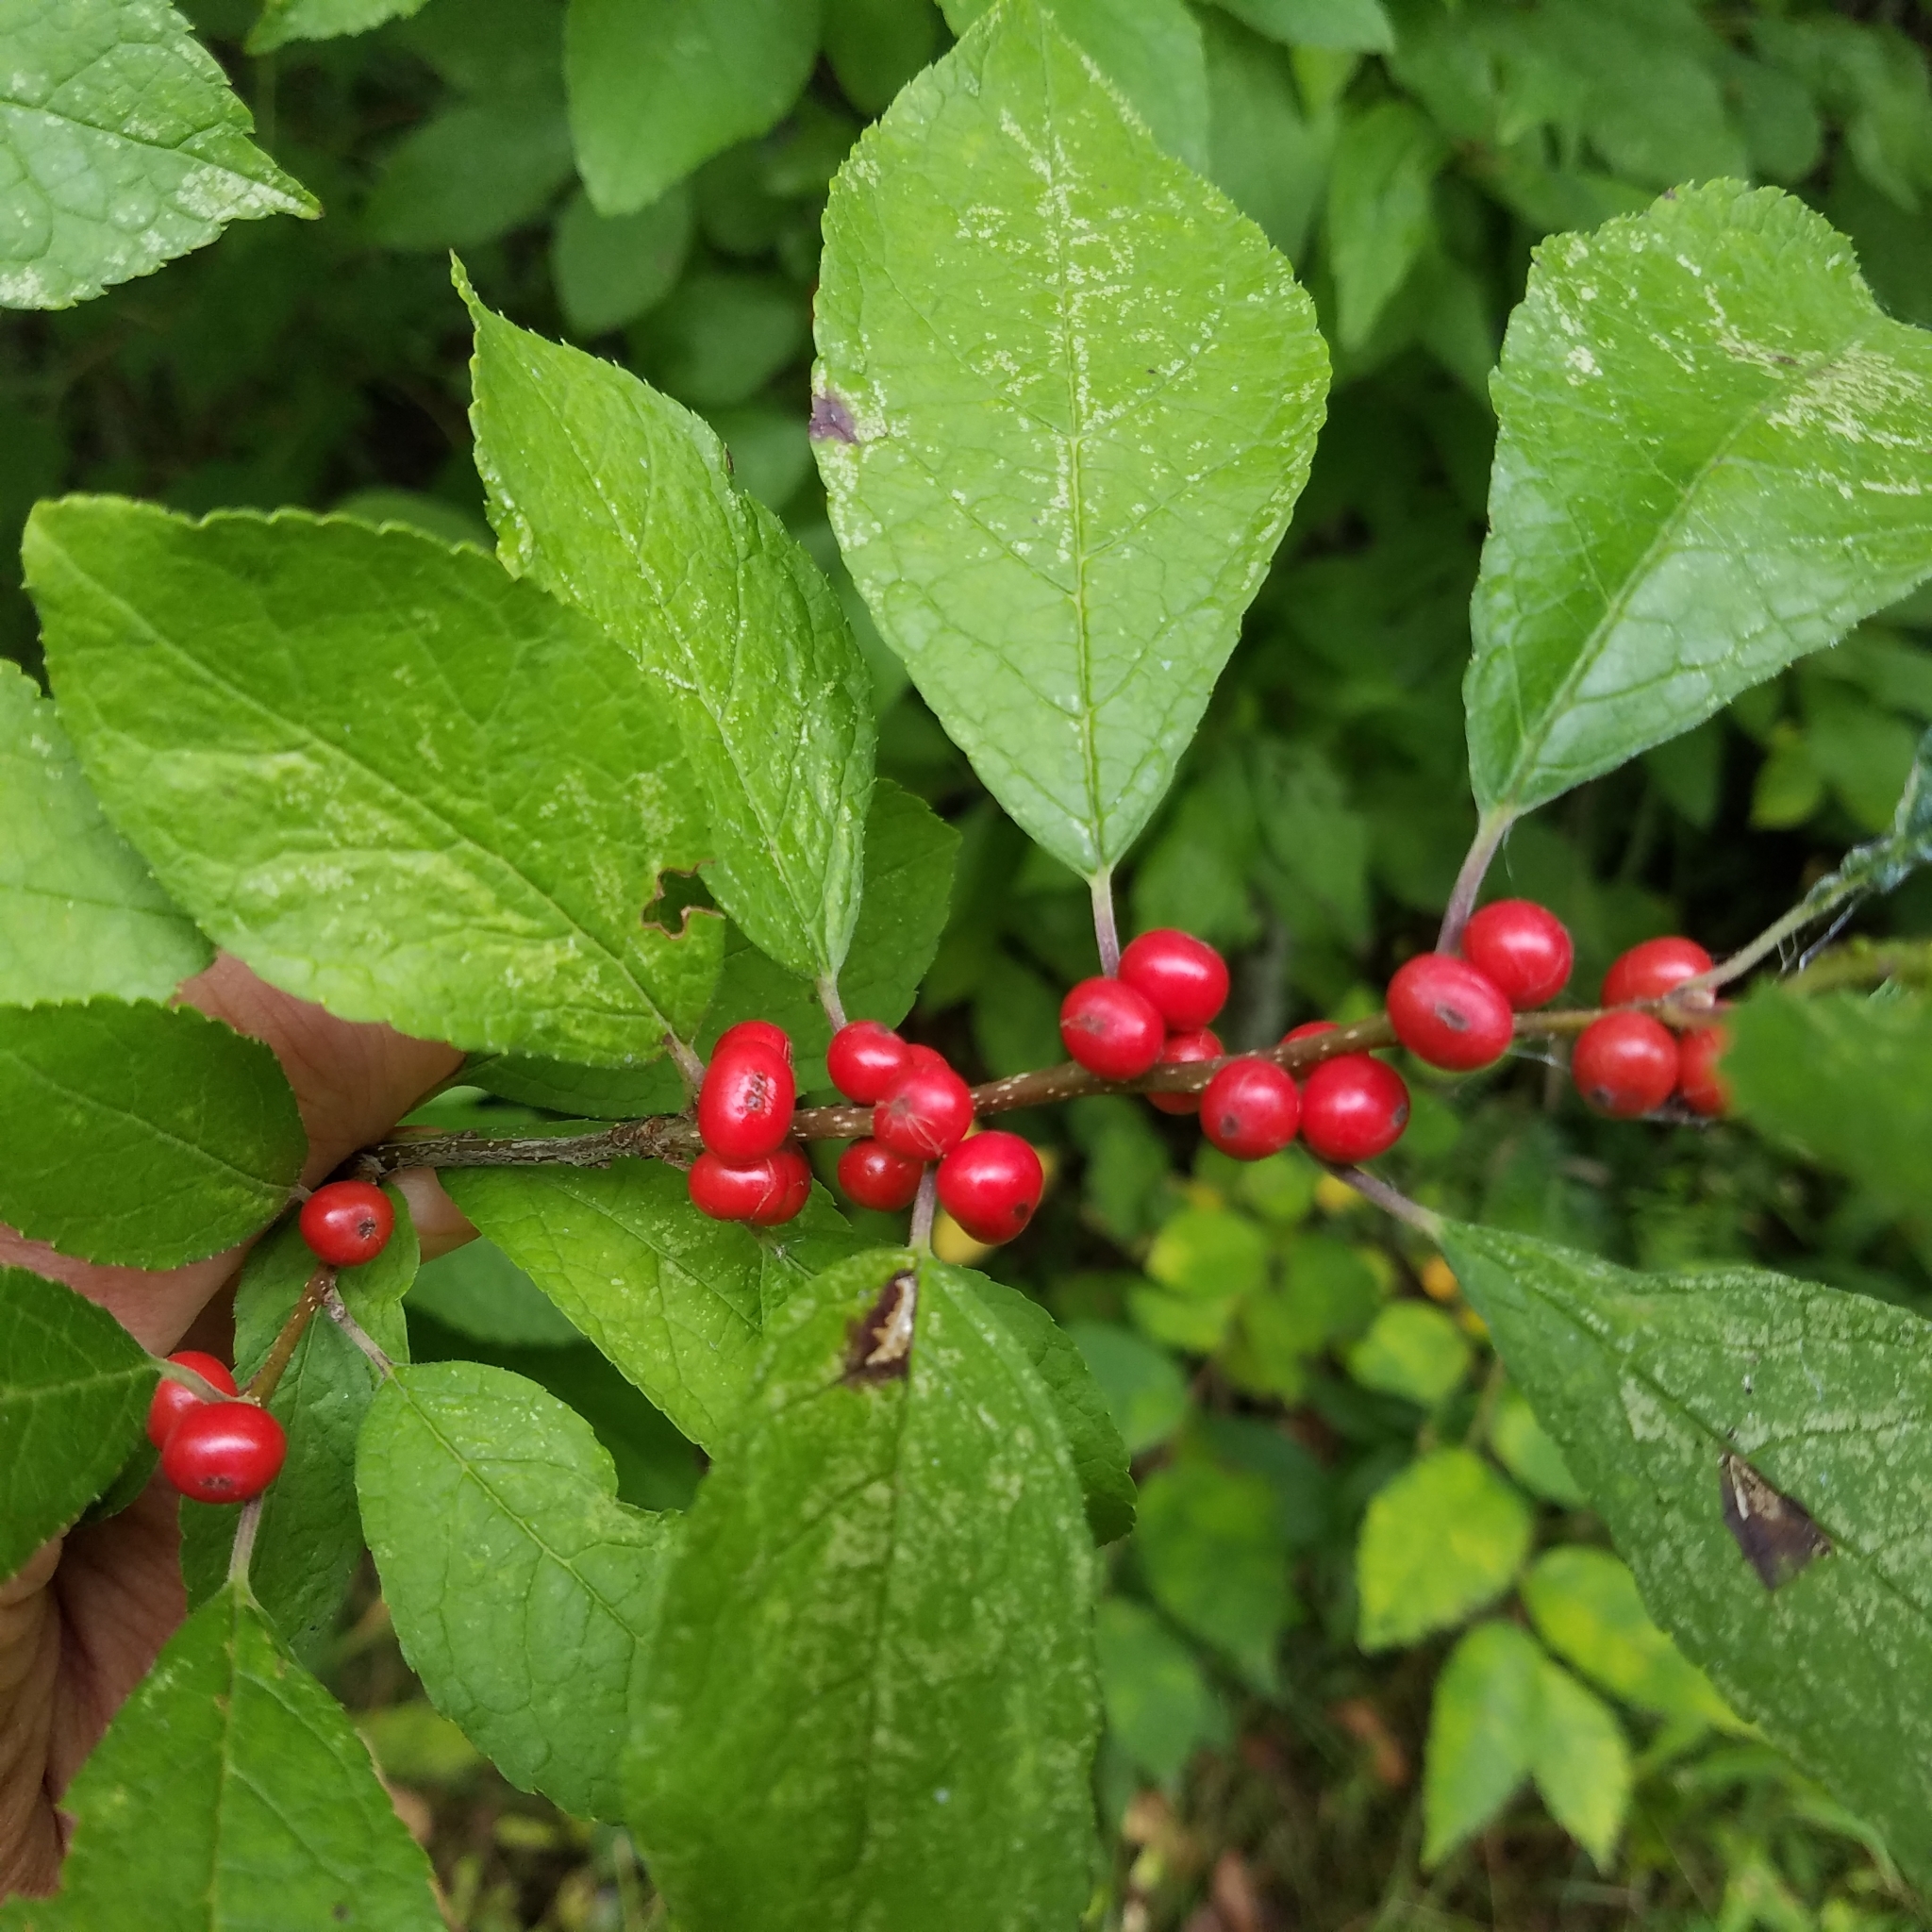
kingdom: Plantae
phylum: Tracheophyta
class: Magnoliopsida
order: Aquifoliales
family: Aquifoliaceae
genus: Ilex
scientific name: Ilex verticillata
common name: Virginia winterberry
